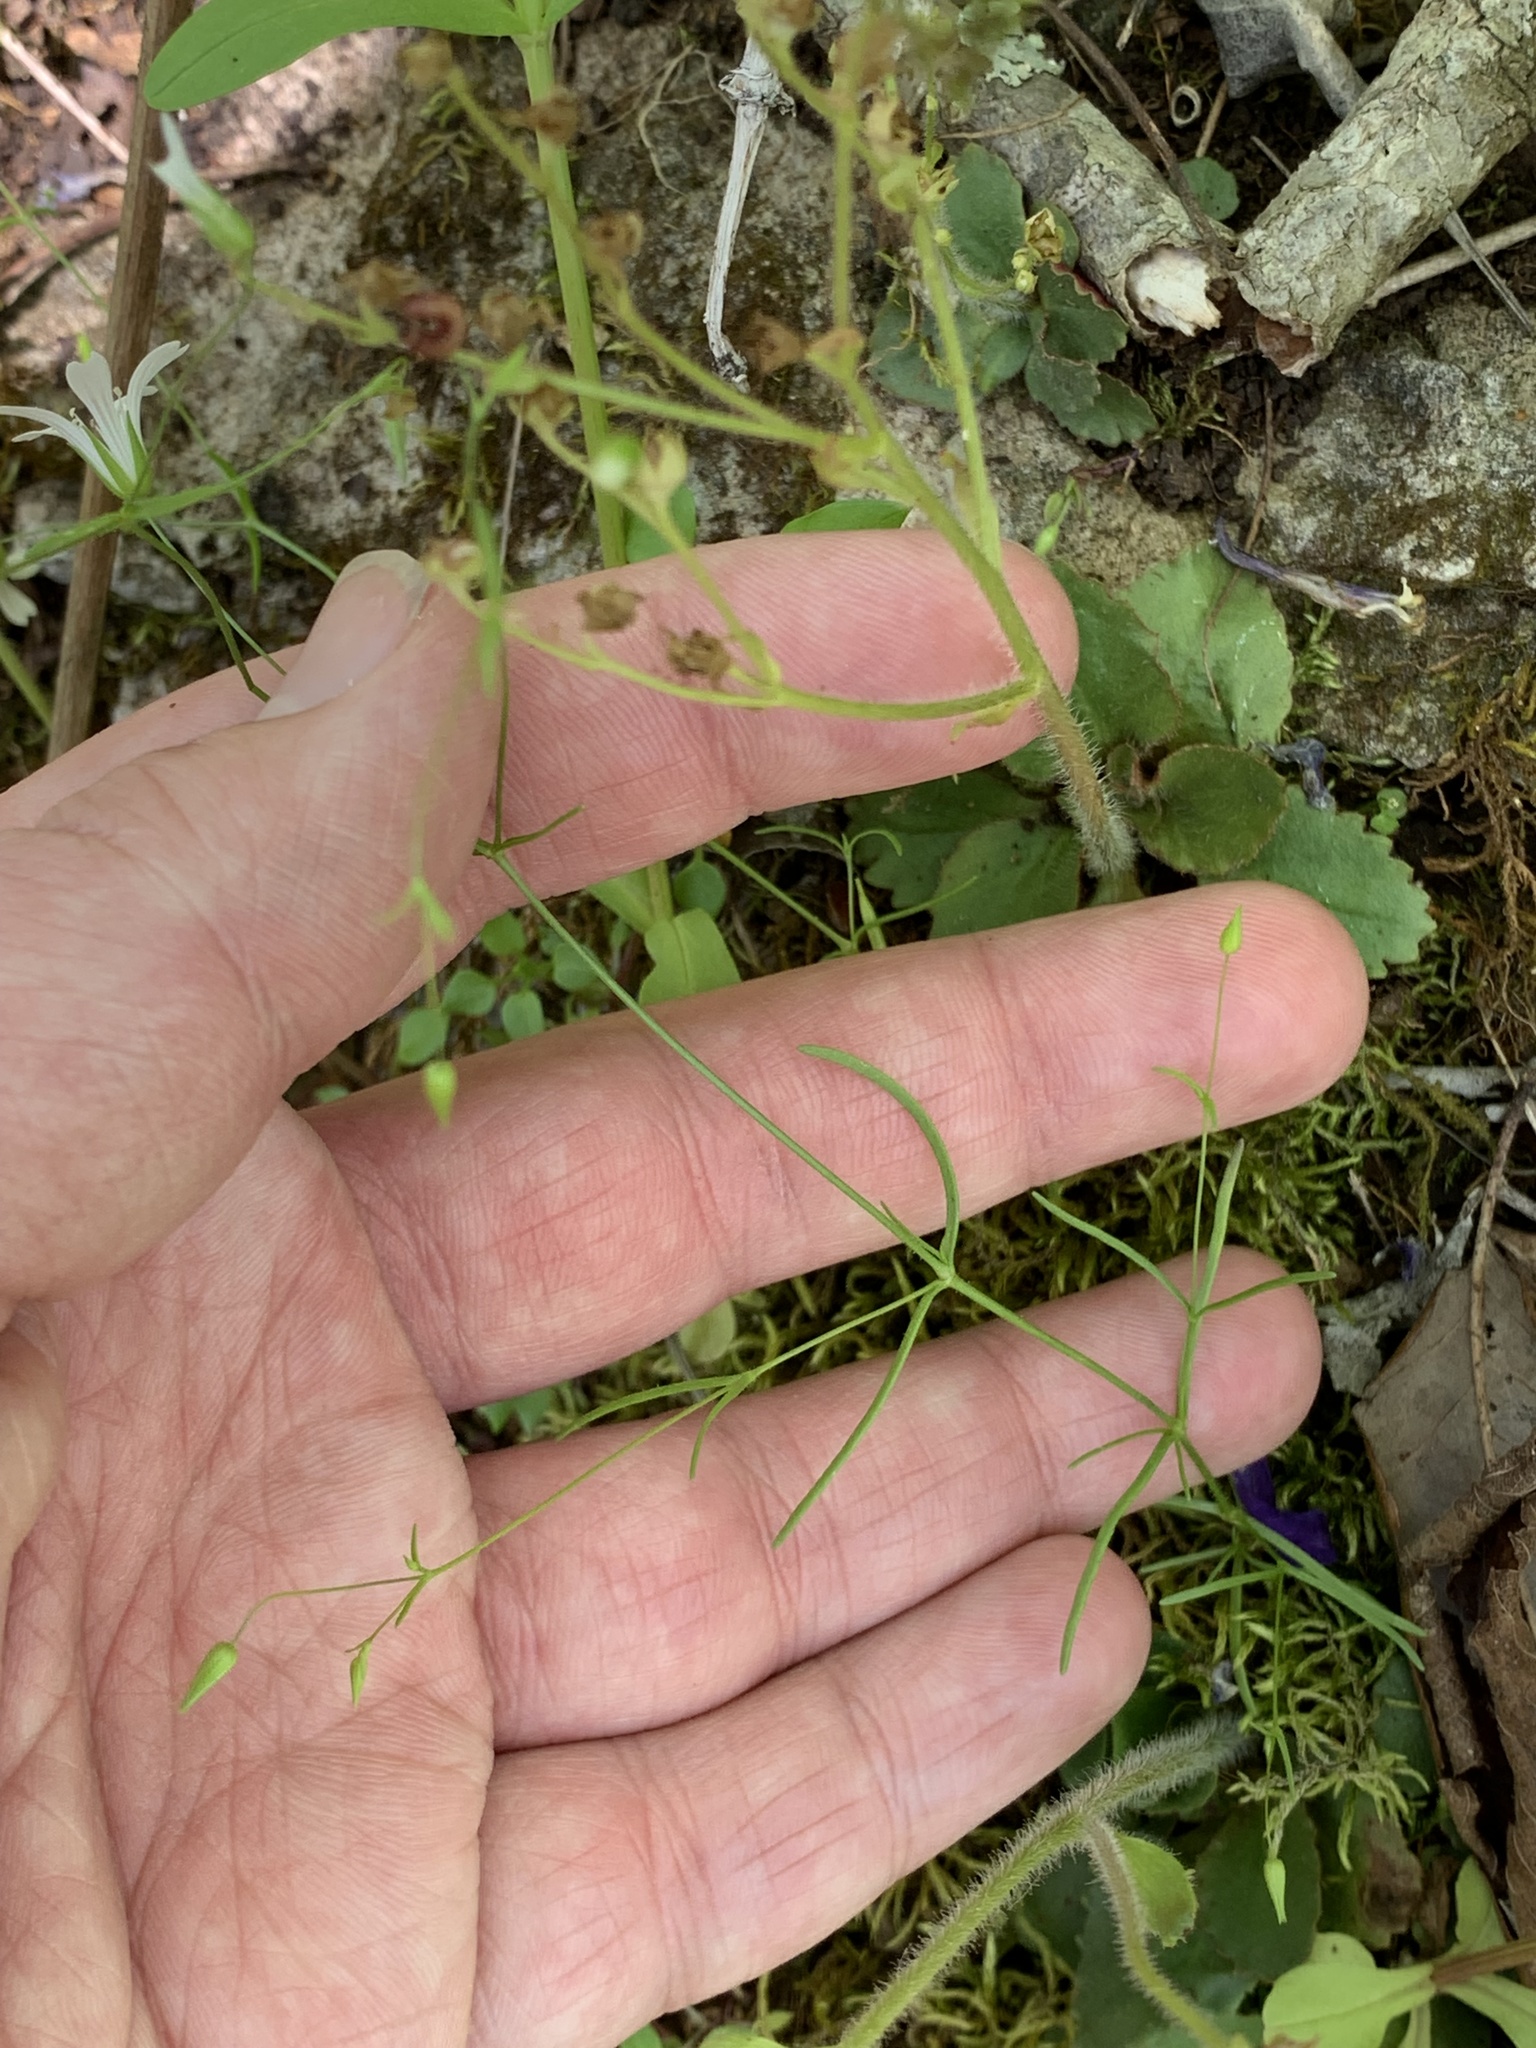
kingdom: Plantae
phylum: Tracheophyta
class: Magnoliopsida
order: Caryophyllales
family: Caryophyllaceae
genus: Mononeuria
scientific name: Mononeuria patula
